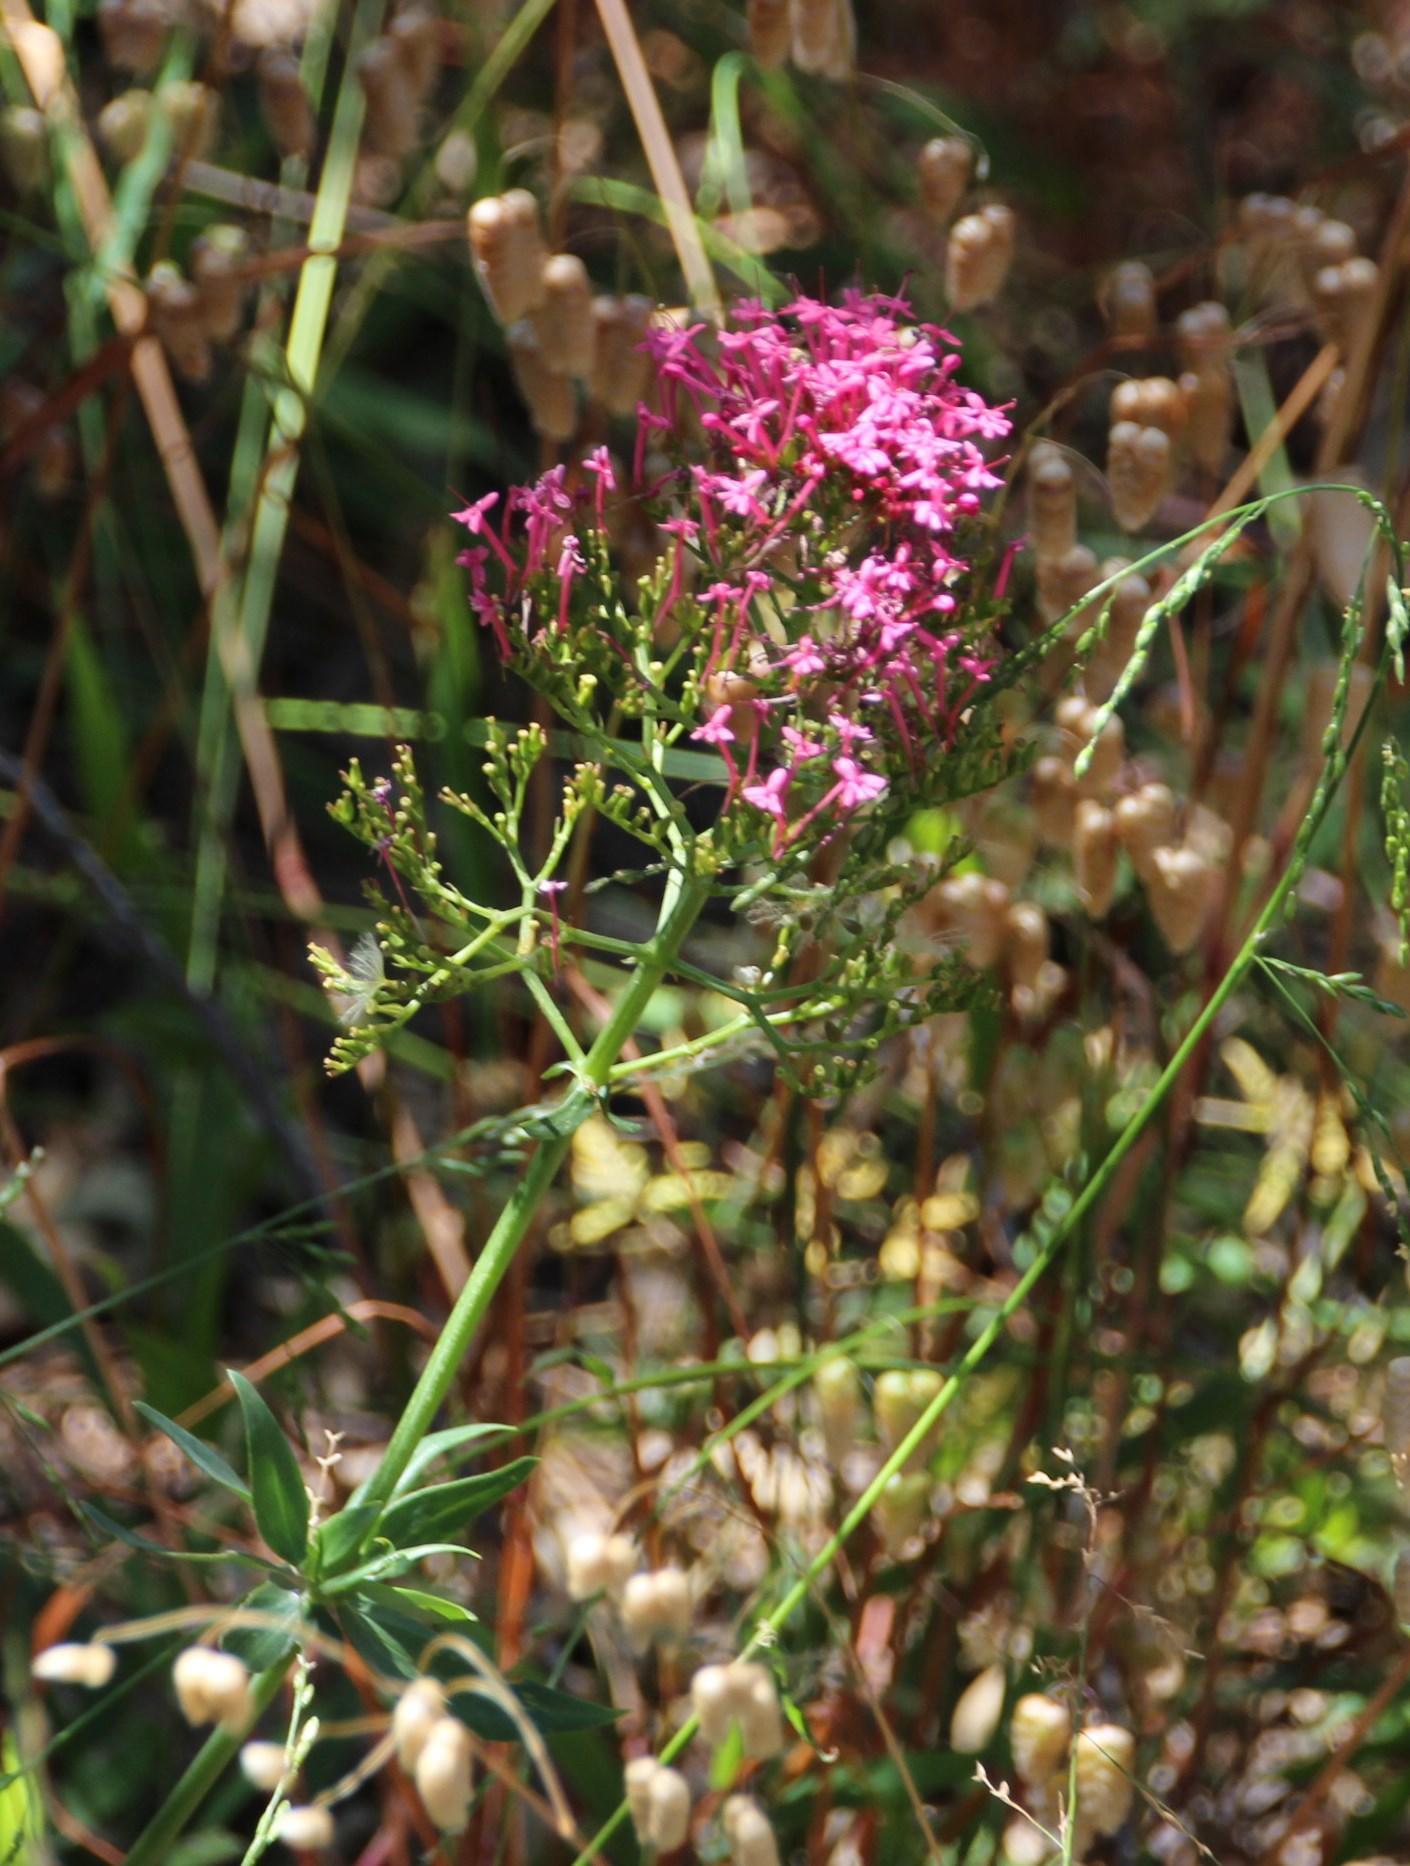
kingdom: Plantae
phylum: Tracheophyta
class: Magnoliopsida
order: Dipsacales
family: Caprifoliaceae
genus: Centranthus
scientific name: Centranthus ruber
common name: Red valerian
